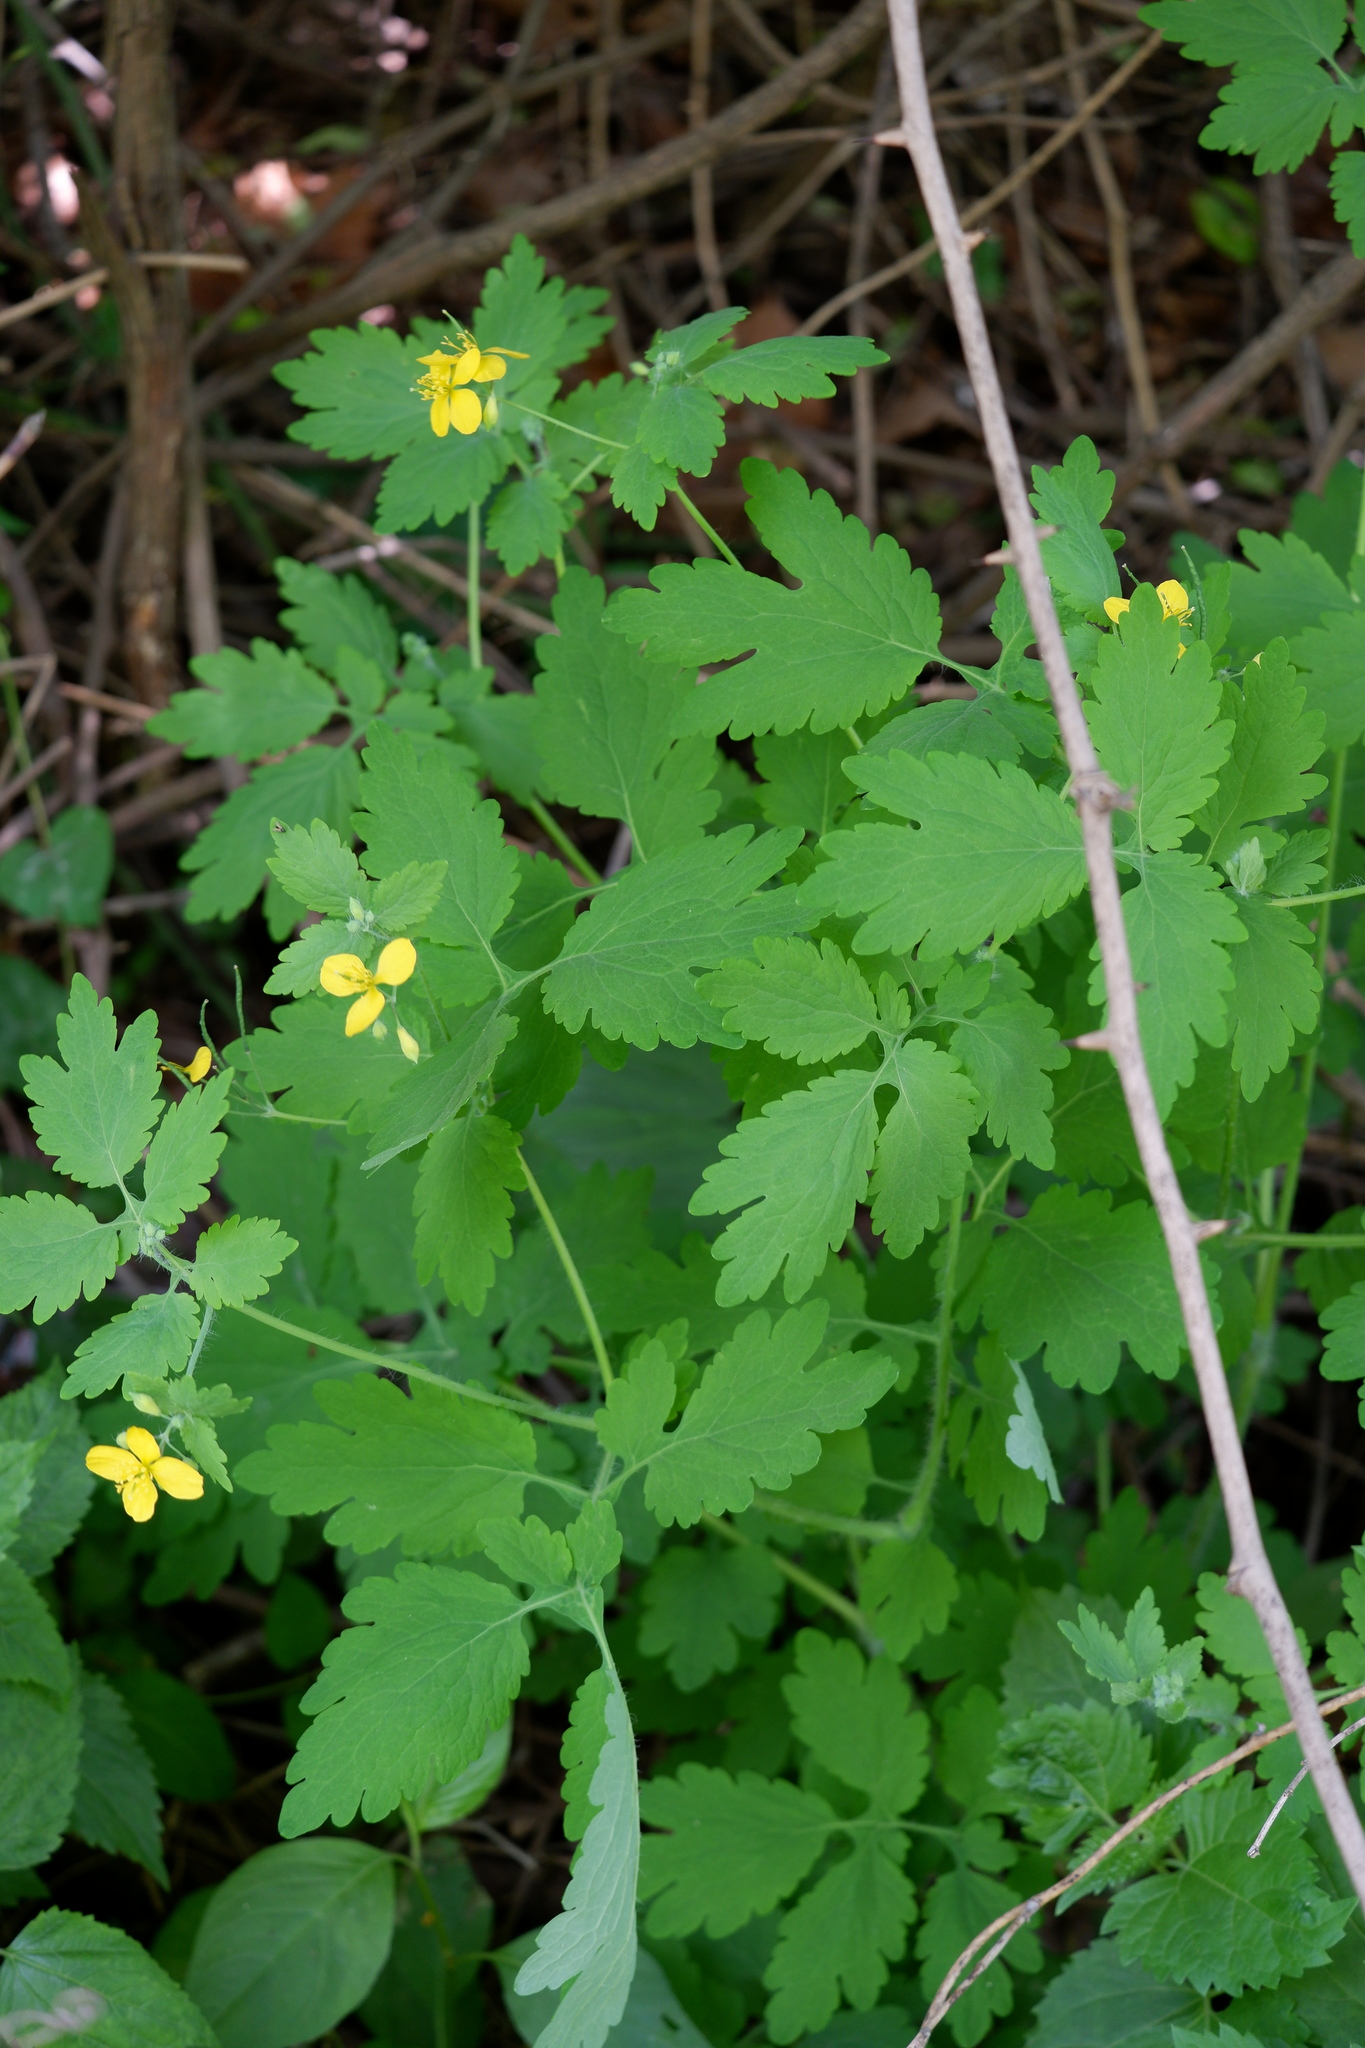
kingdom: Plantae
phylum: Tracheophyta
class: Magnoliopsida
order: Ranunculales
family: Papaveraceae
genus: Chelidonium
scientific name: Chelidonium majus
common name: Greater celandine
